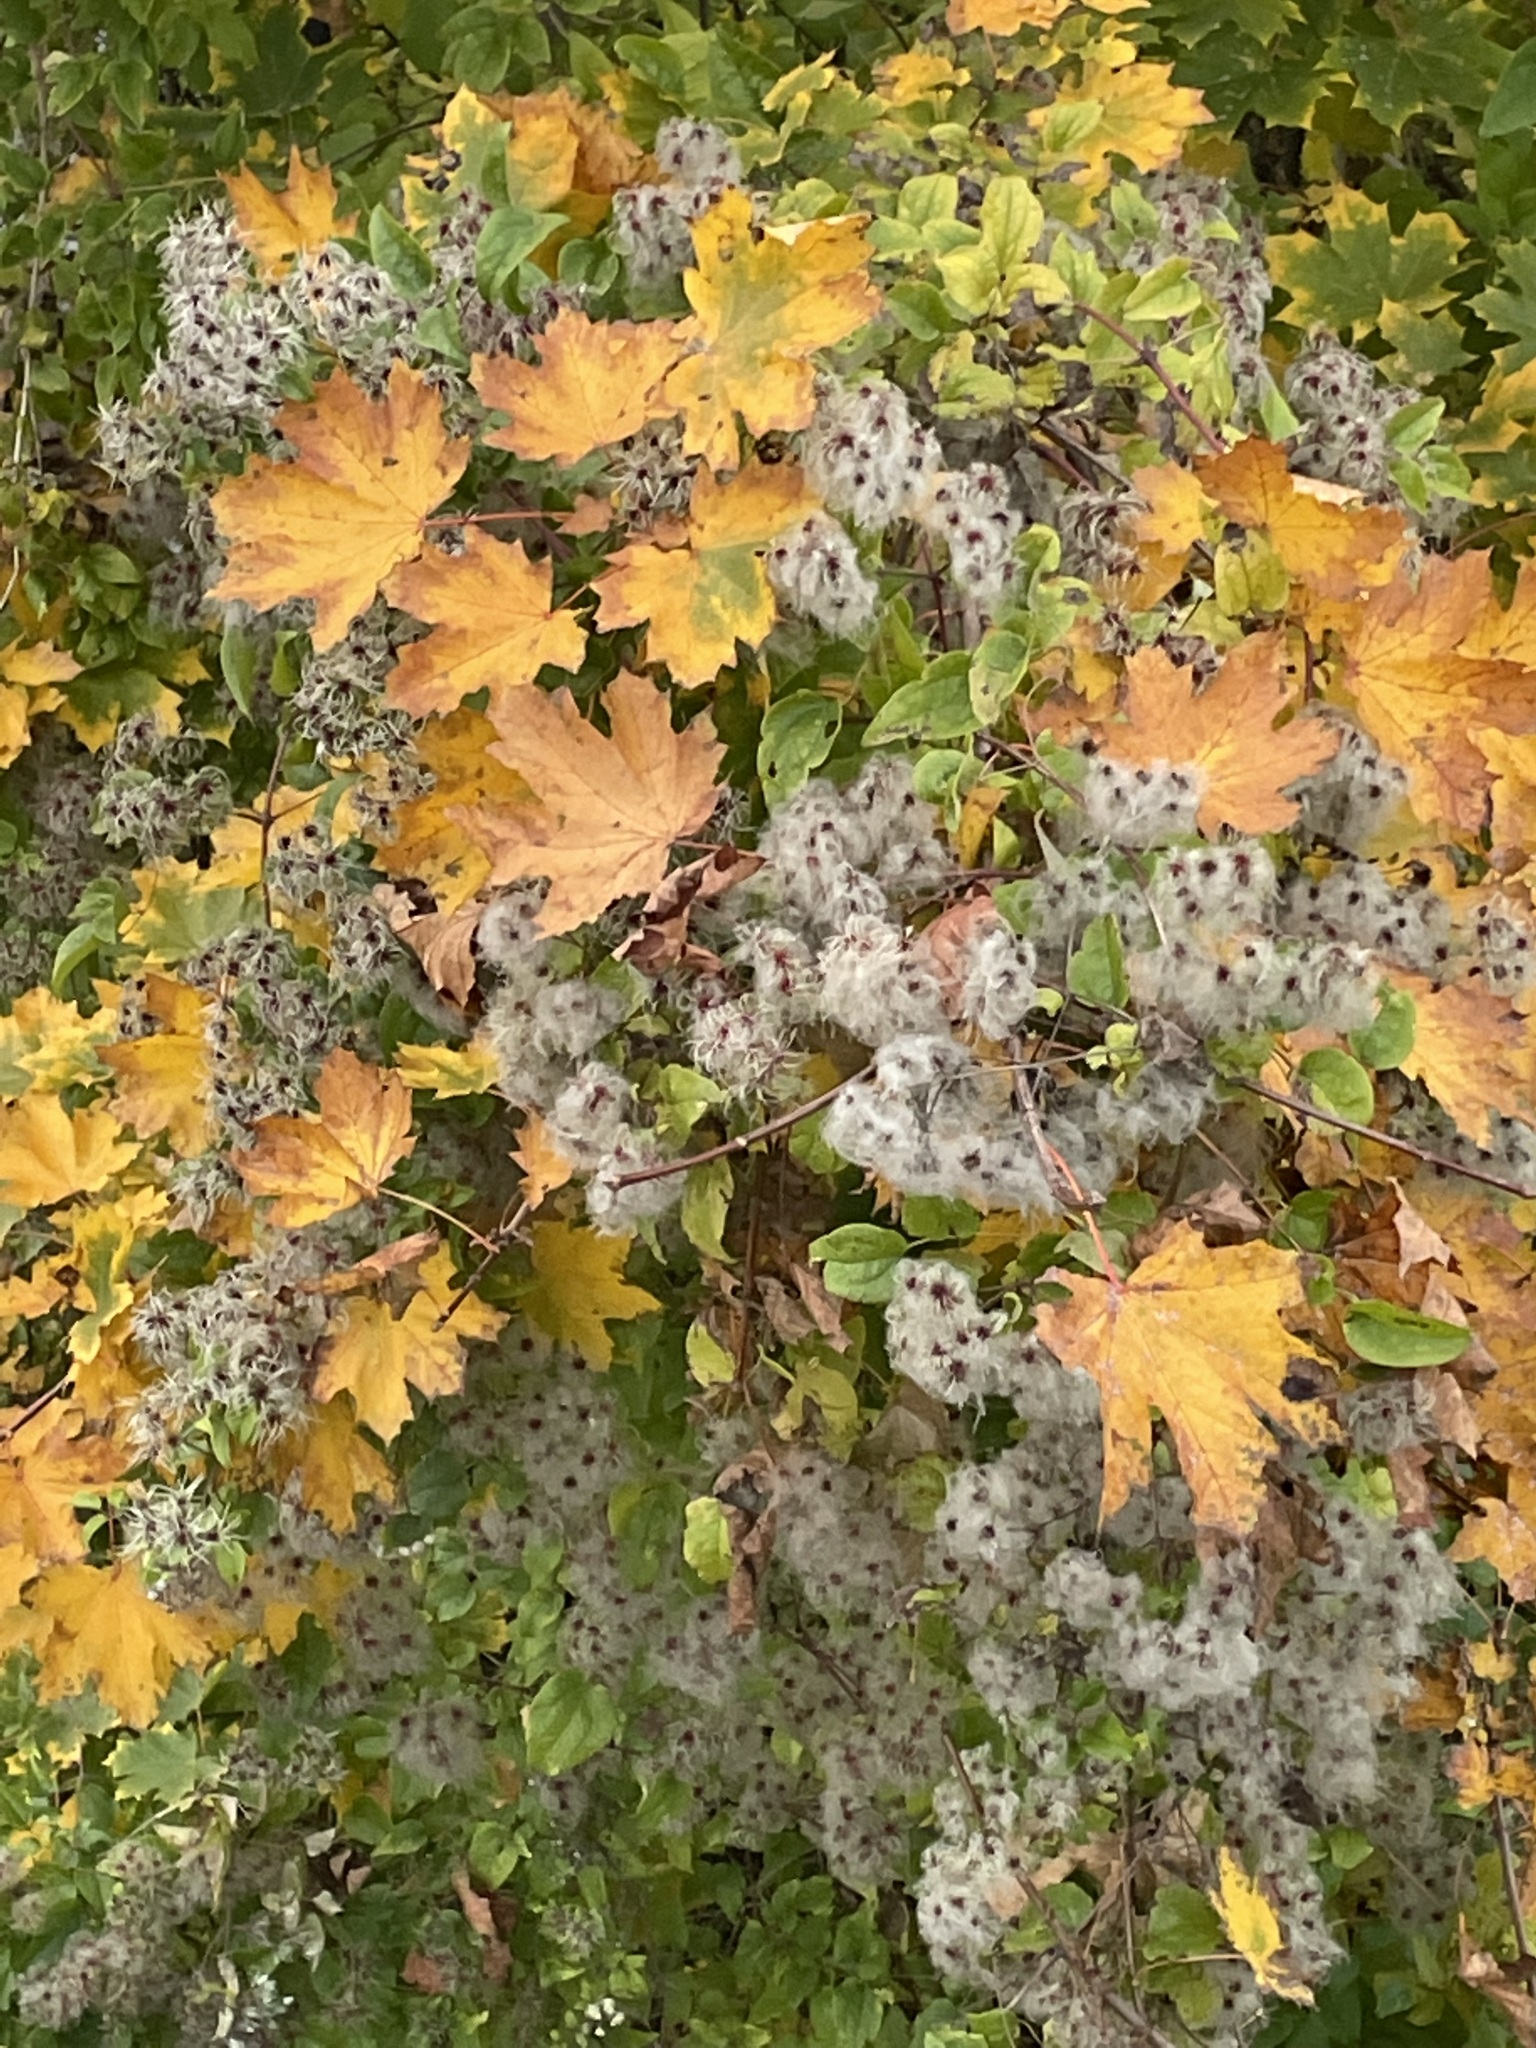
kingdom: Plantae
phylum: Tracheophyta
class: Magnoliopsida
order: Ranunculales
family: Ranunculaceae
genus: Clematis
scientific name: Clematis vitalba
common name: Evergreen clematis
